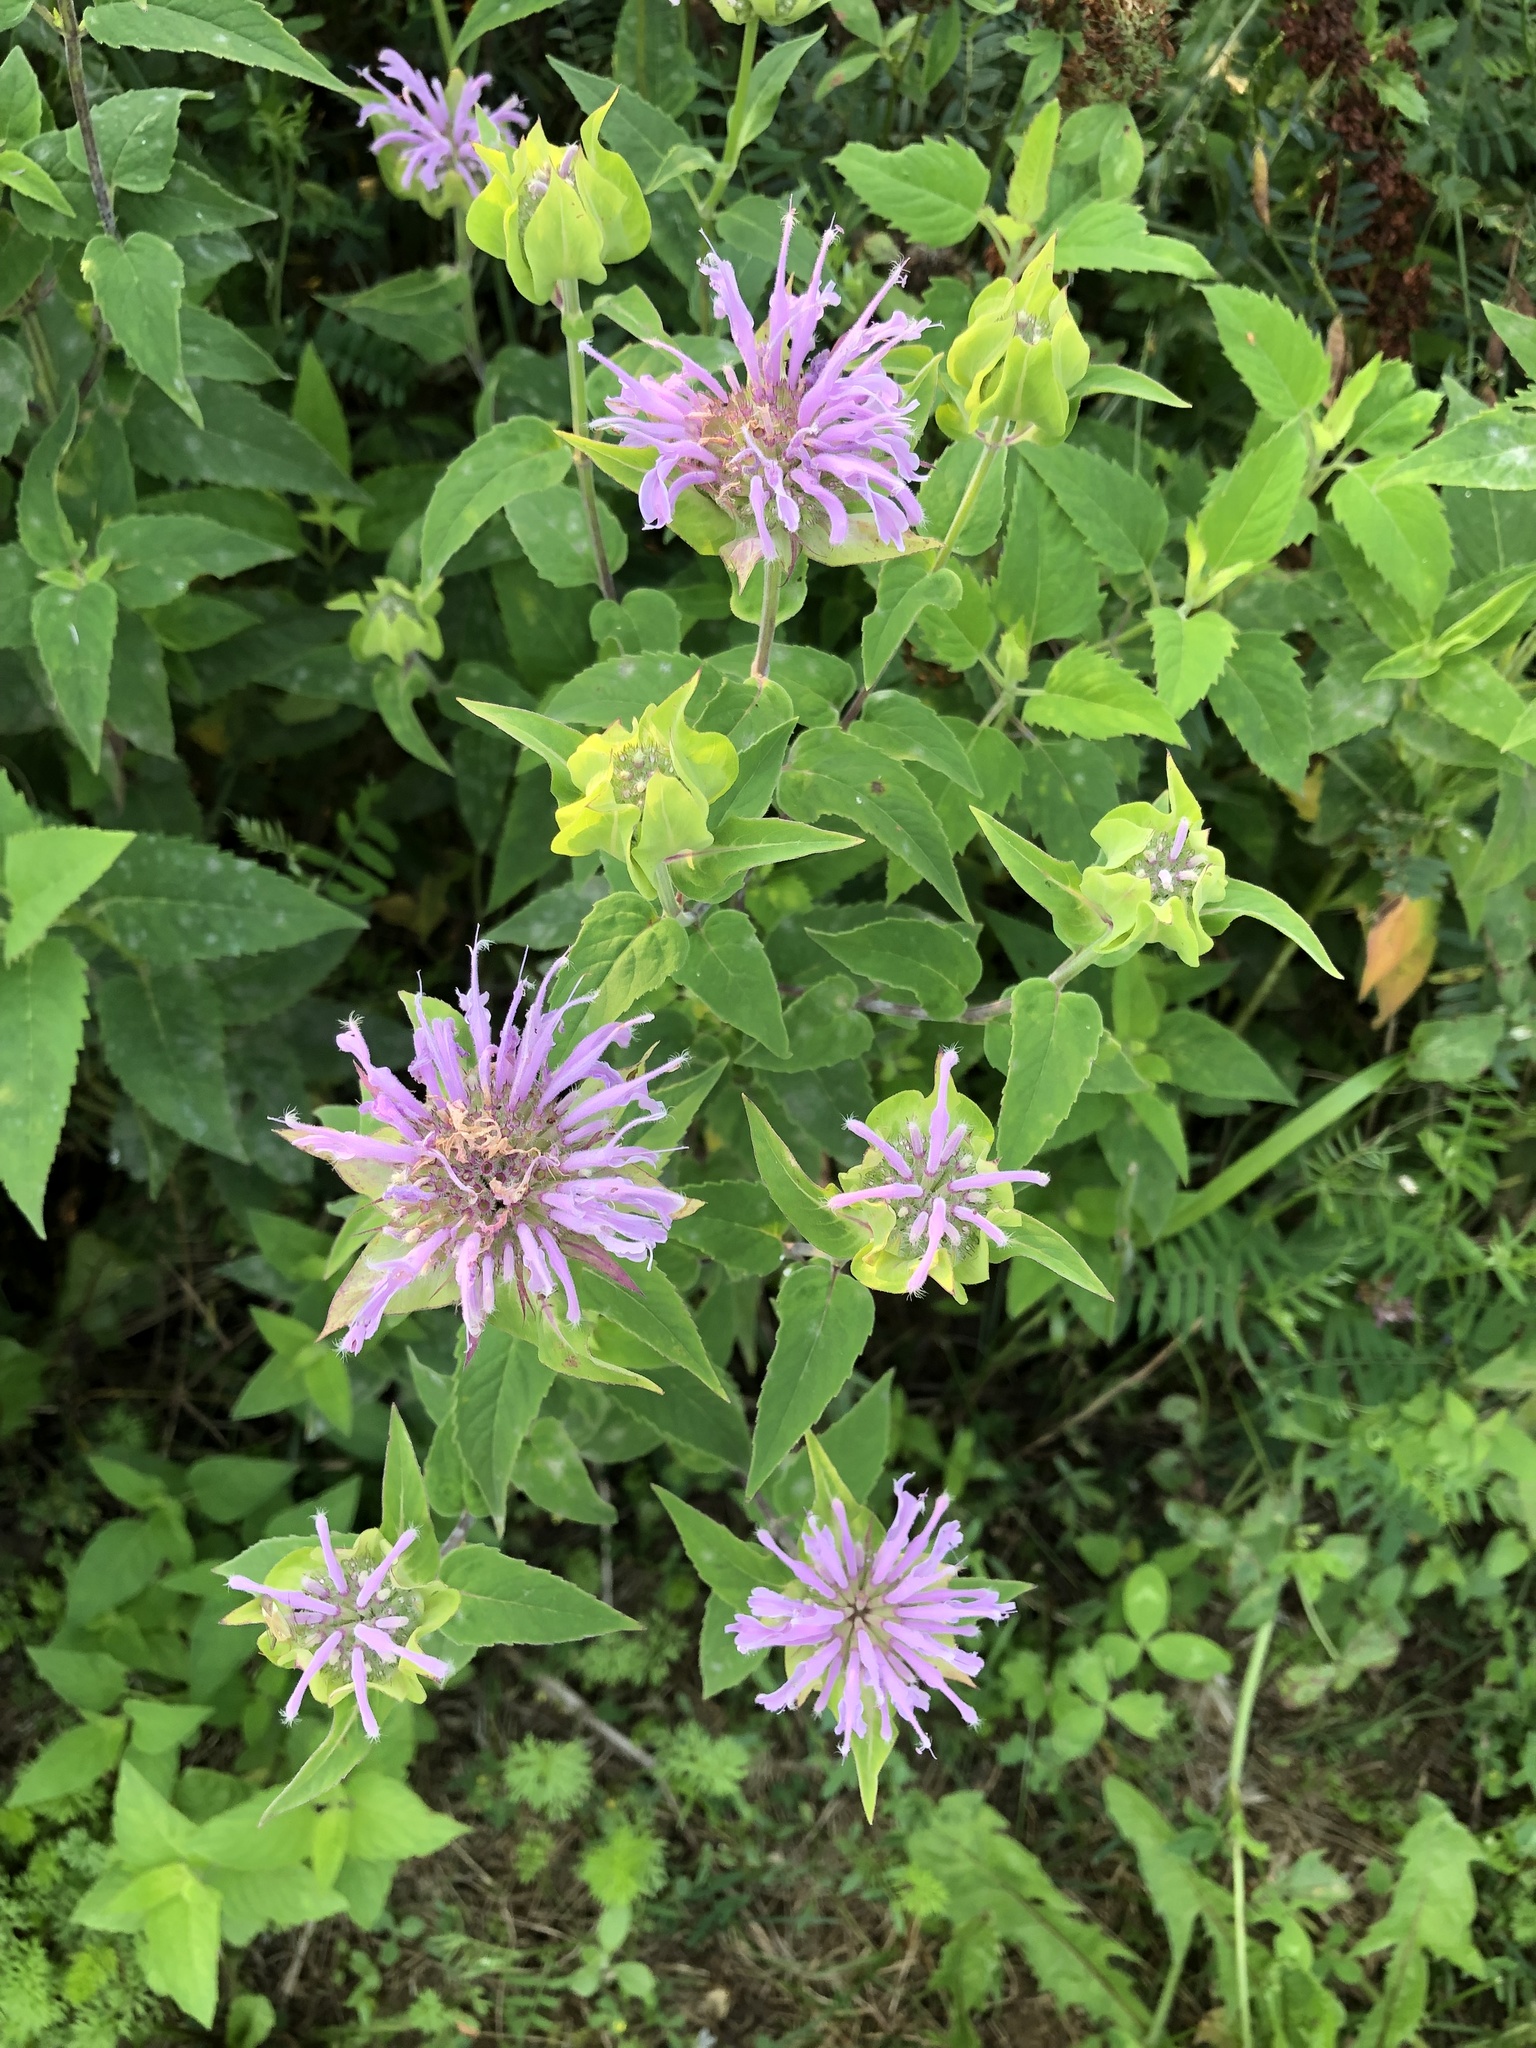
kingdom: Plantae
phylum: Tracheophyta
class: Magnoliopsida
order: Lamiales
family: Lamiaceae
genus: Monarda
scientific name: Monarda fistulosa
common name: Purple beebalm
